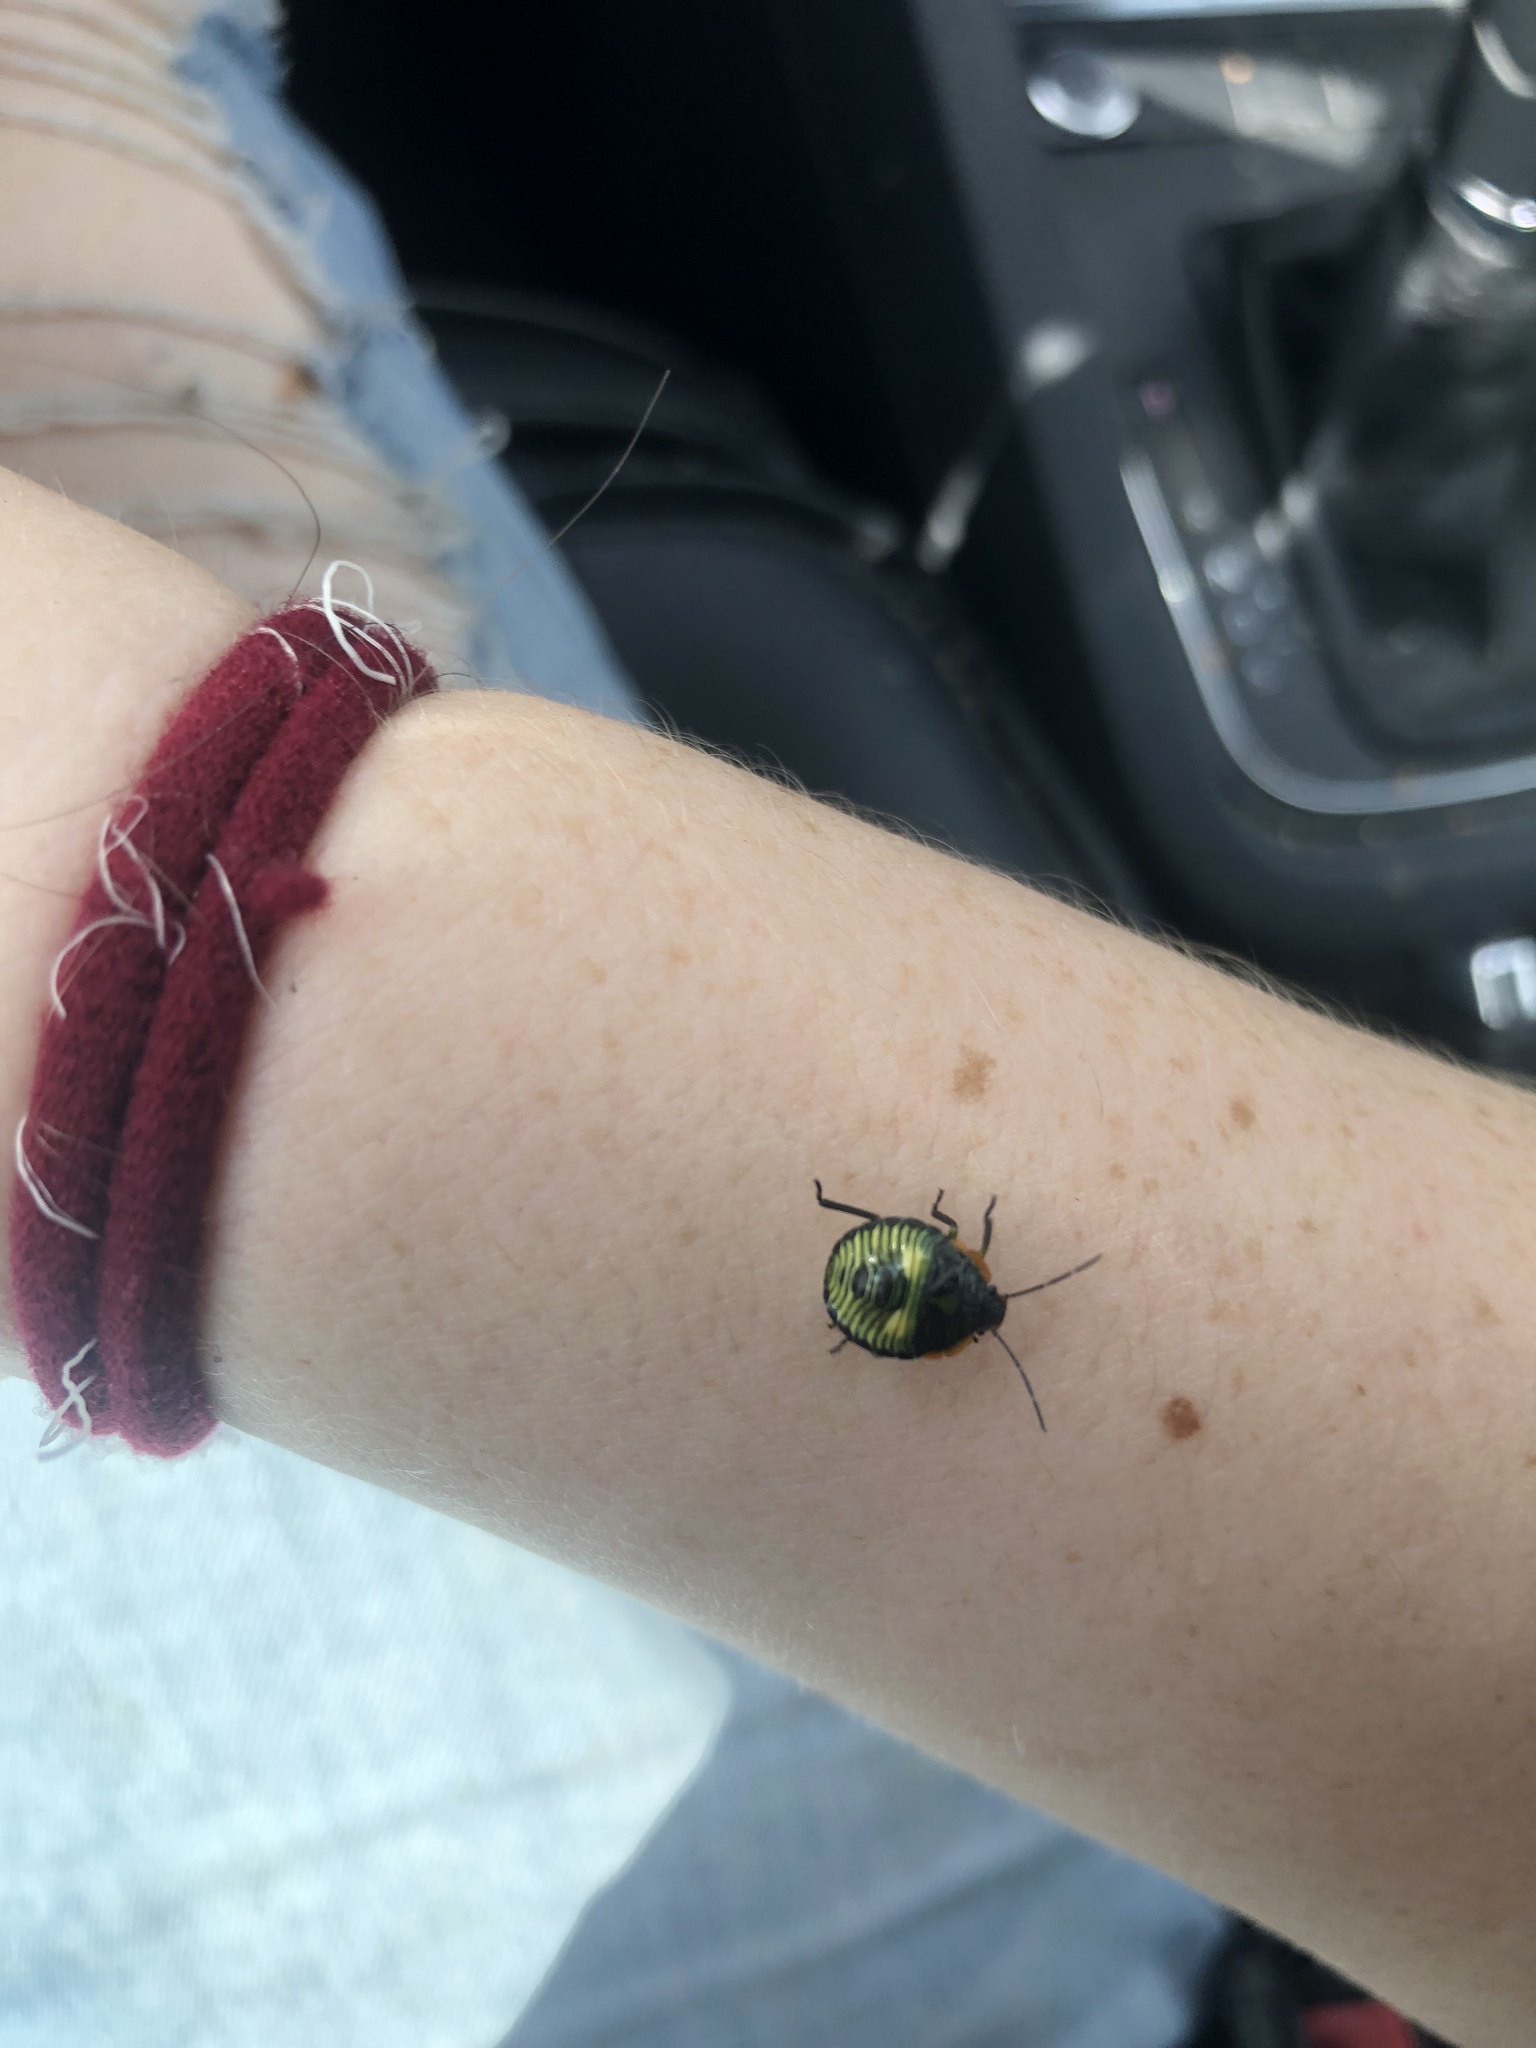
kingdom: Animalia
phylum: Arthropoda
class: Insecta
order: Hemiptera
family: Pentatomidae
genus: Chinavia
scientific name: Chinavia hilaris
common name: Green stink bug
